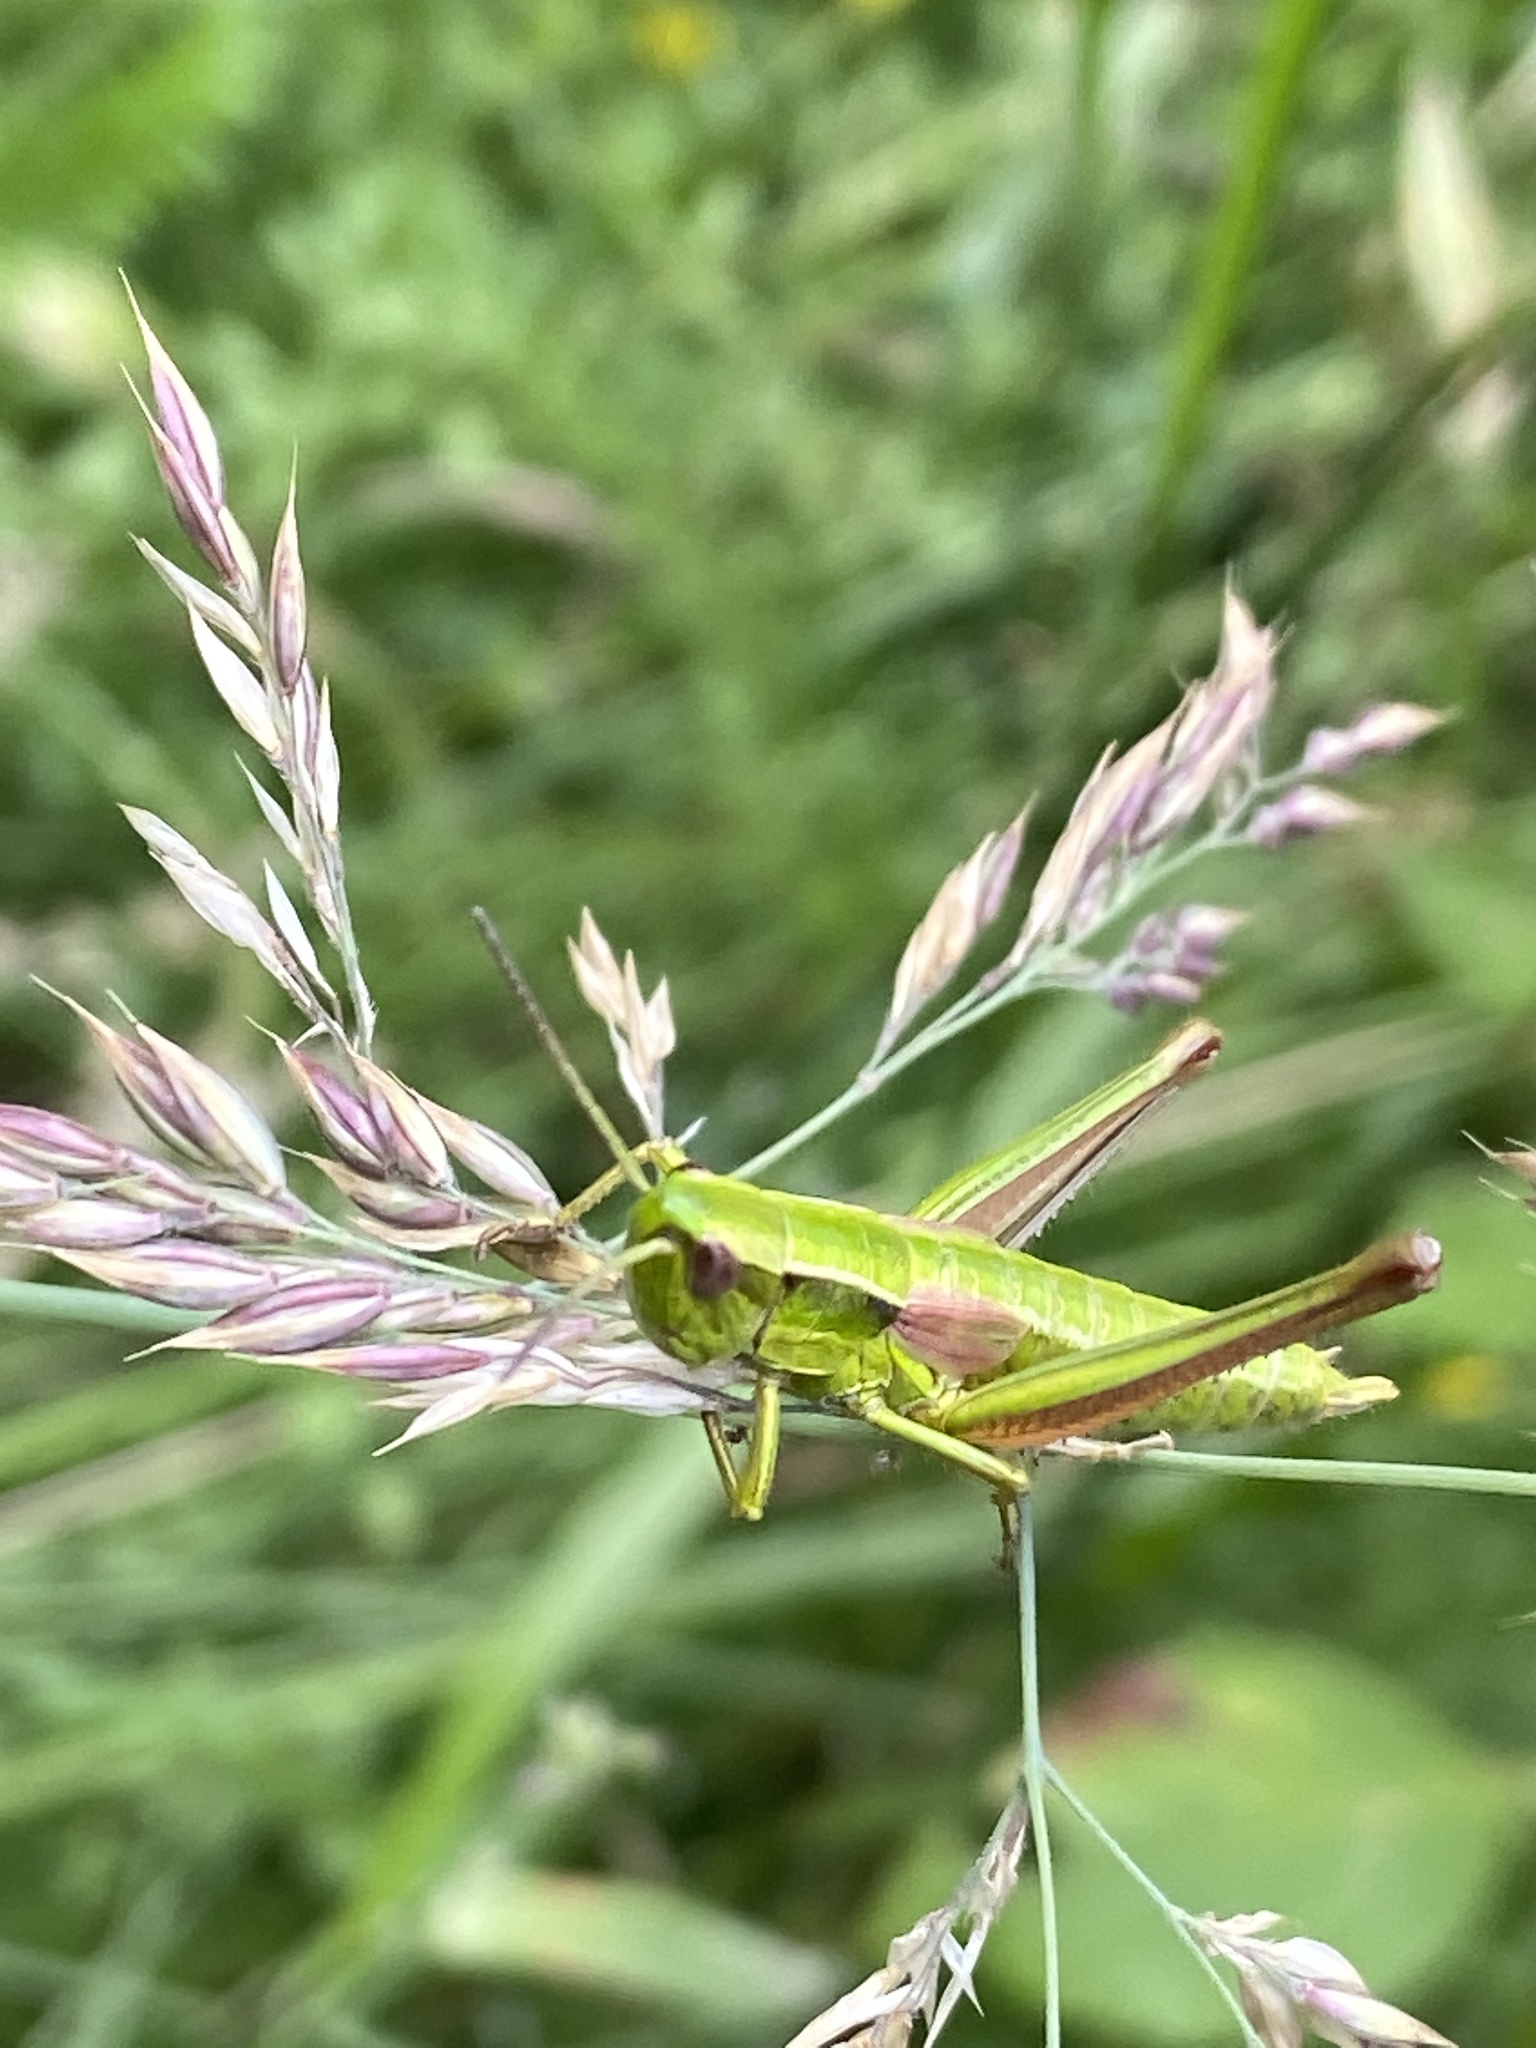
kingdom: Animalia
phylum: Arthropoda
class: Insecta
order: Orthoptera
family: Acrididae
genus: Euthystira
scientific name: Euthystira brachyptera
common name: Small gold grasshopper
